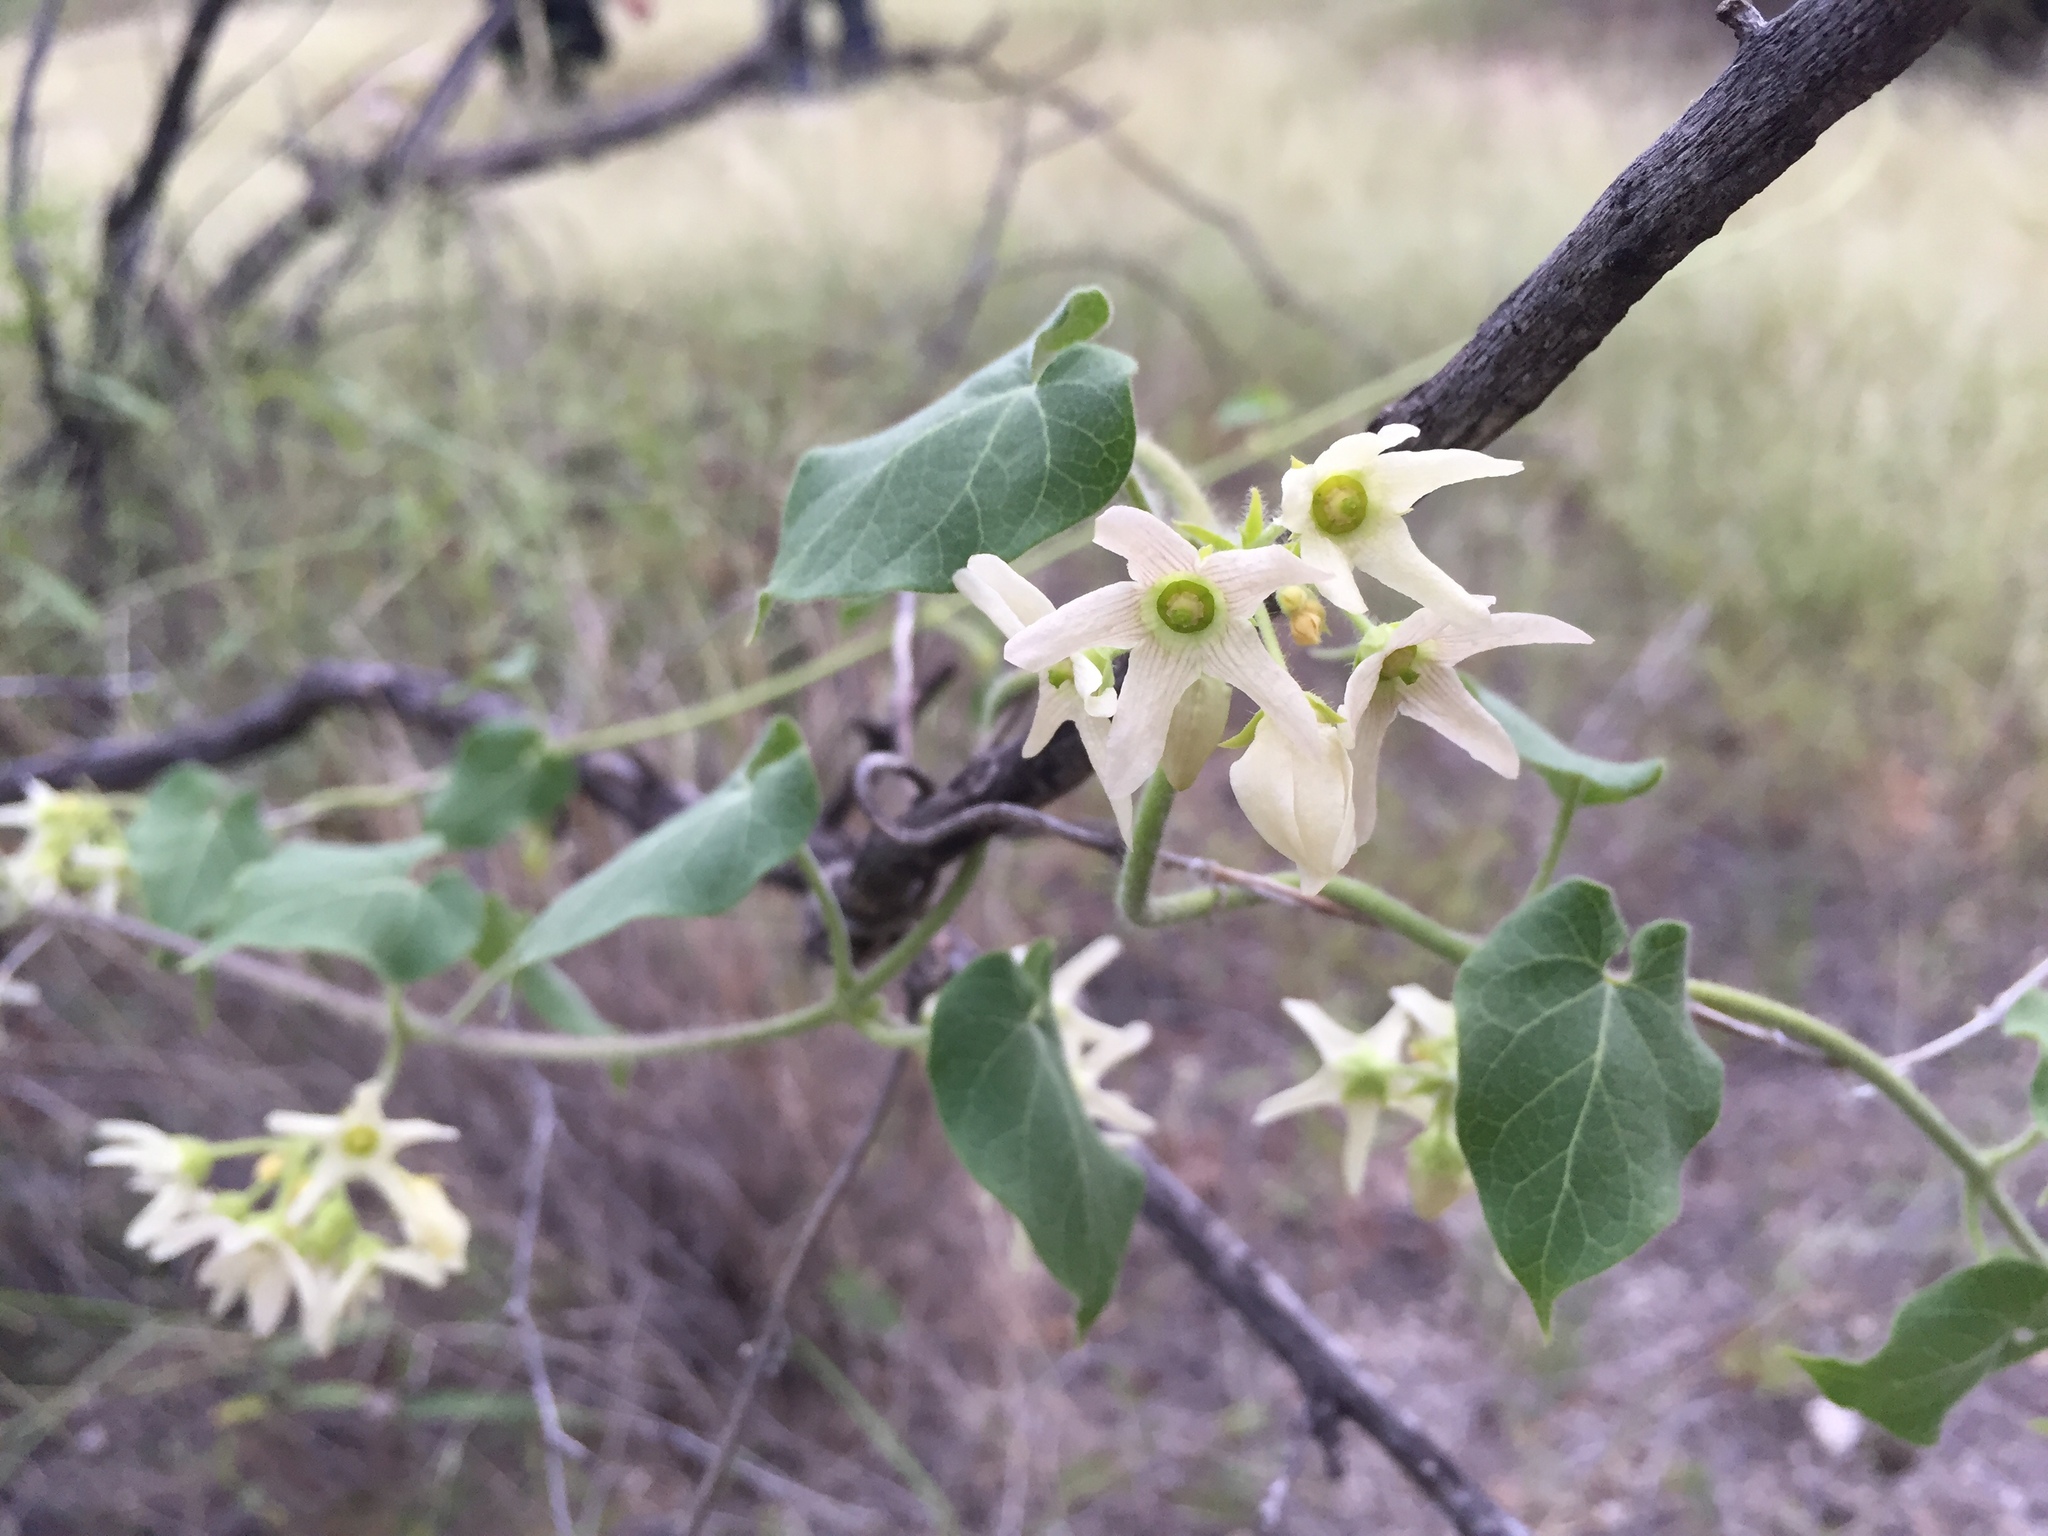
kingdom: Plantae
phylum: Tracheophyta
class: Magnoliopsida
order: Gentianales
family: Apocynaceae
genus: Polystemma
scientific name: Polystemma cordifolium
